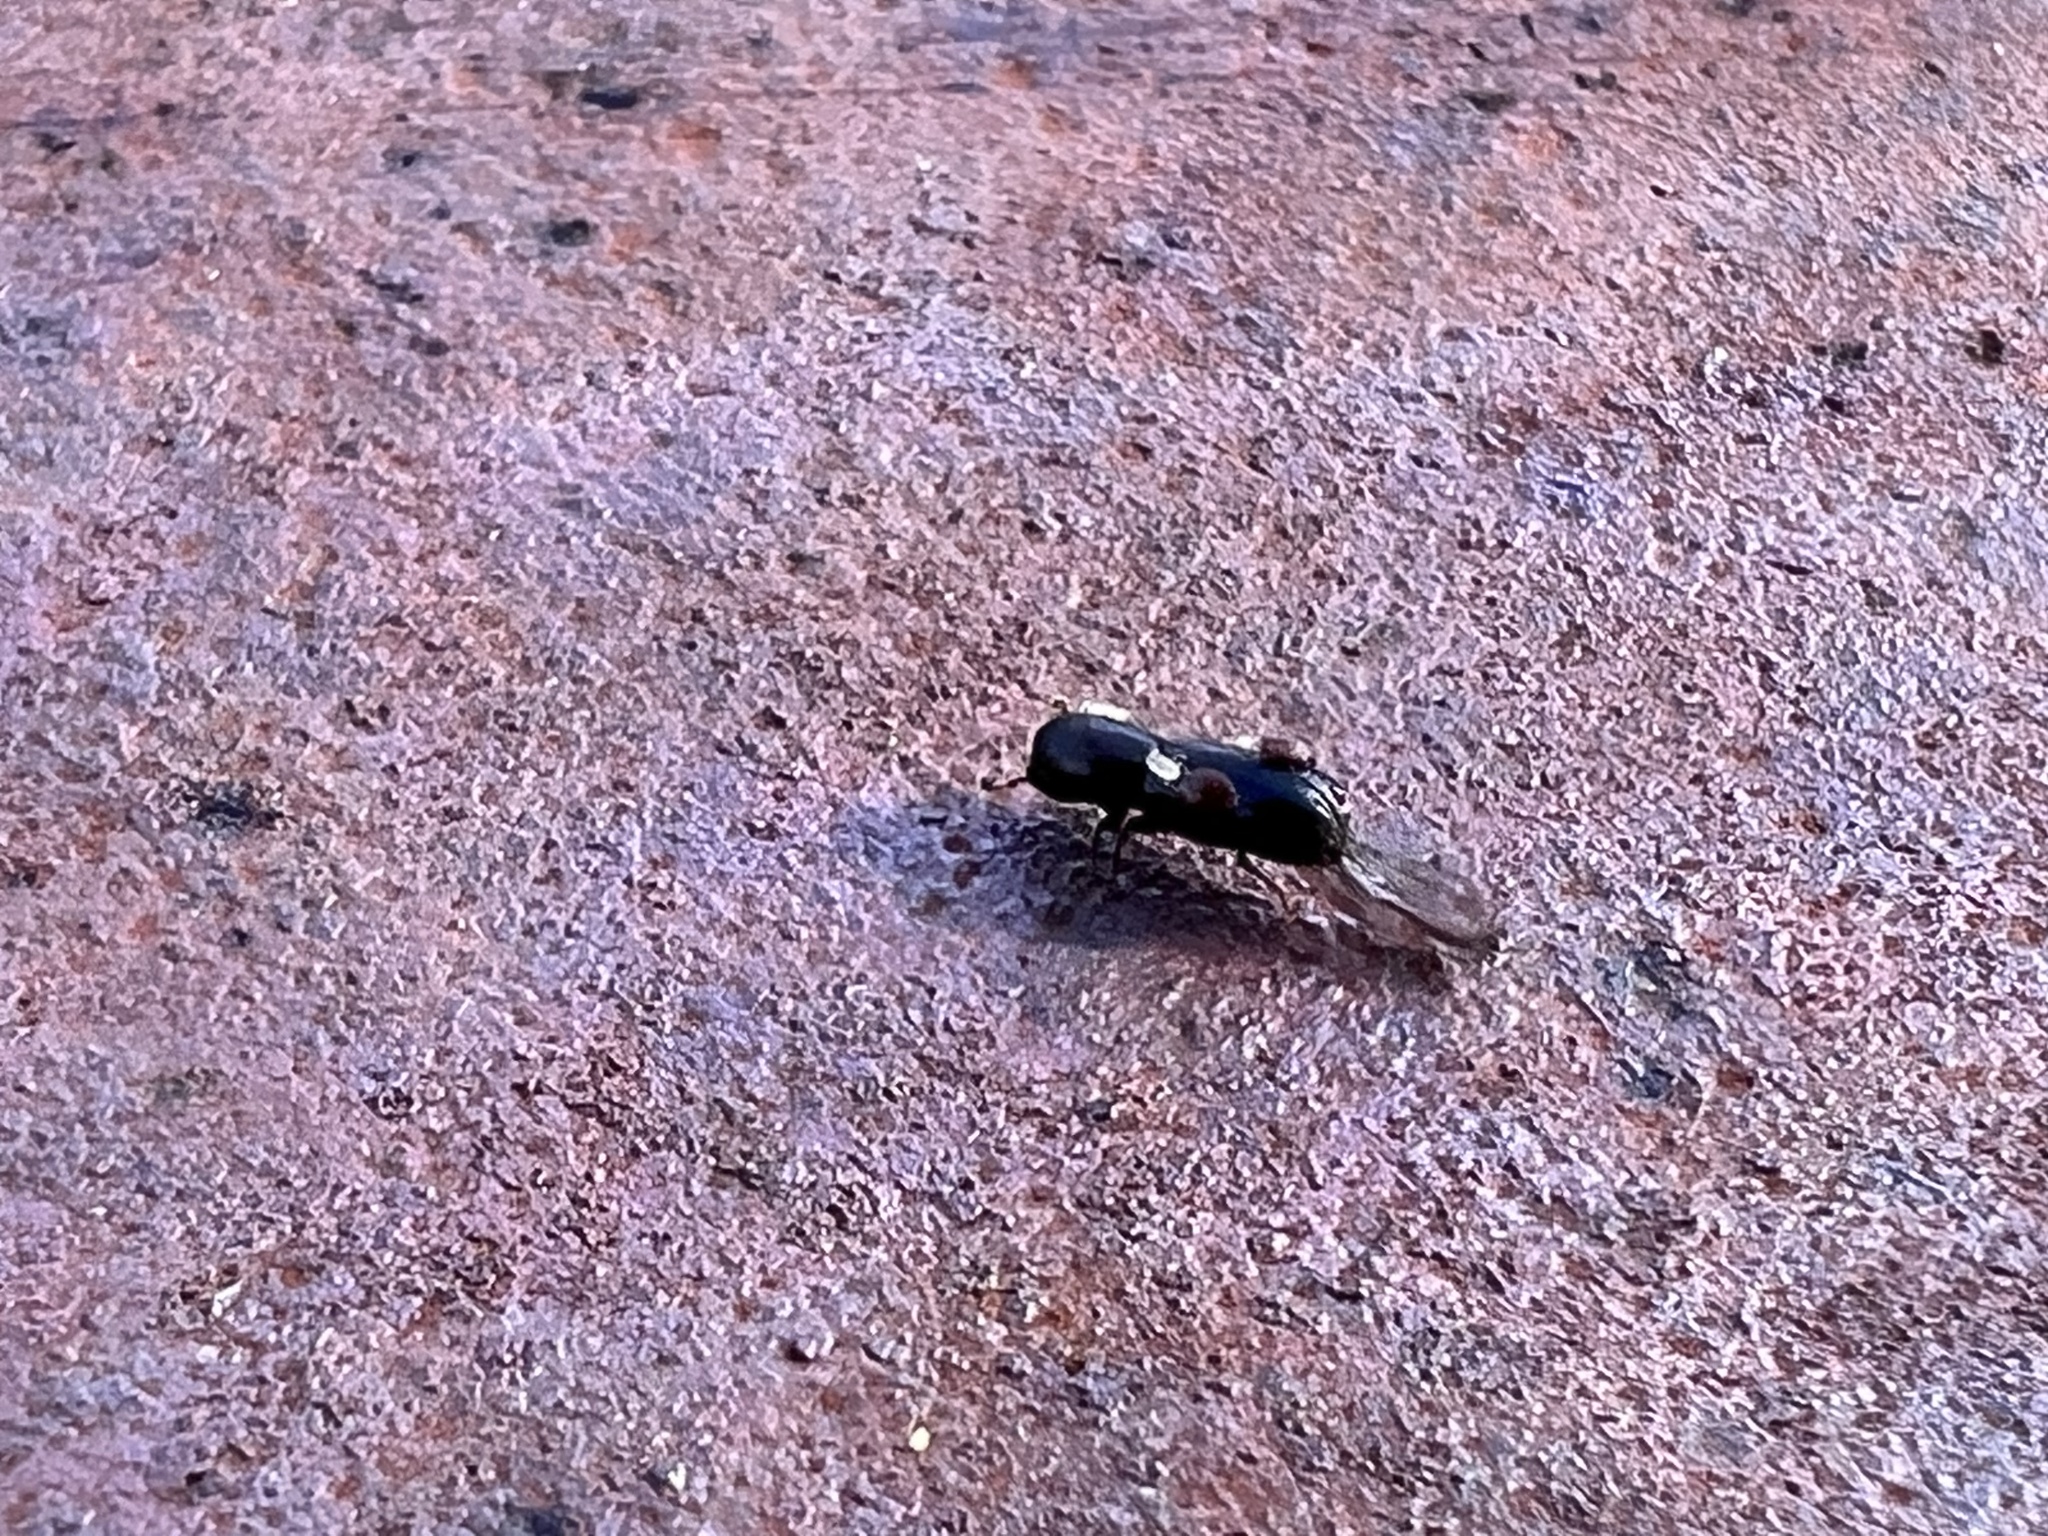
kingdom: Animalia
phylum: Arthropoda
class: Insecta
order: Coleoptera
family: Curculionidae
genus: Gnathotrichus
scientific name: Gnathotrichus retusus
